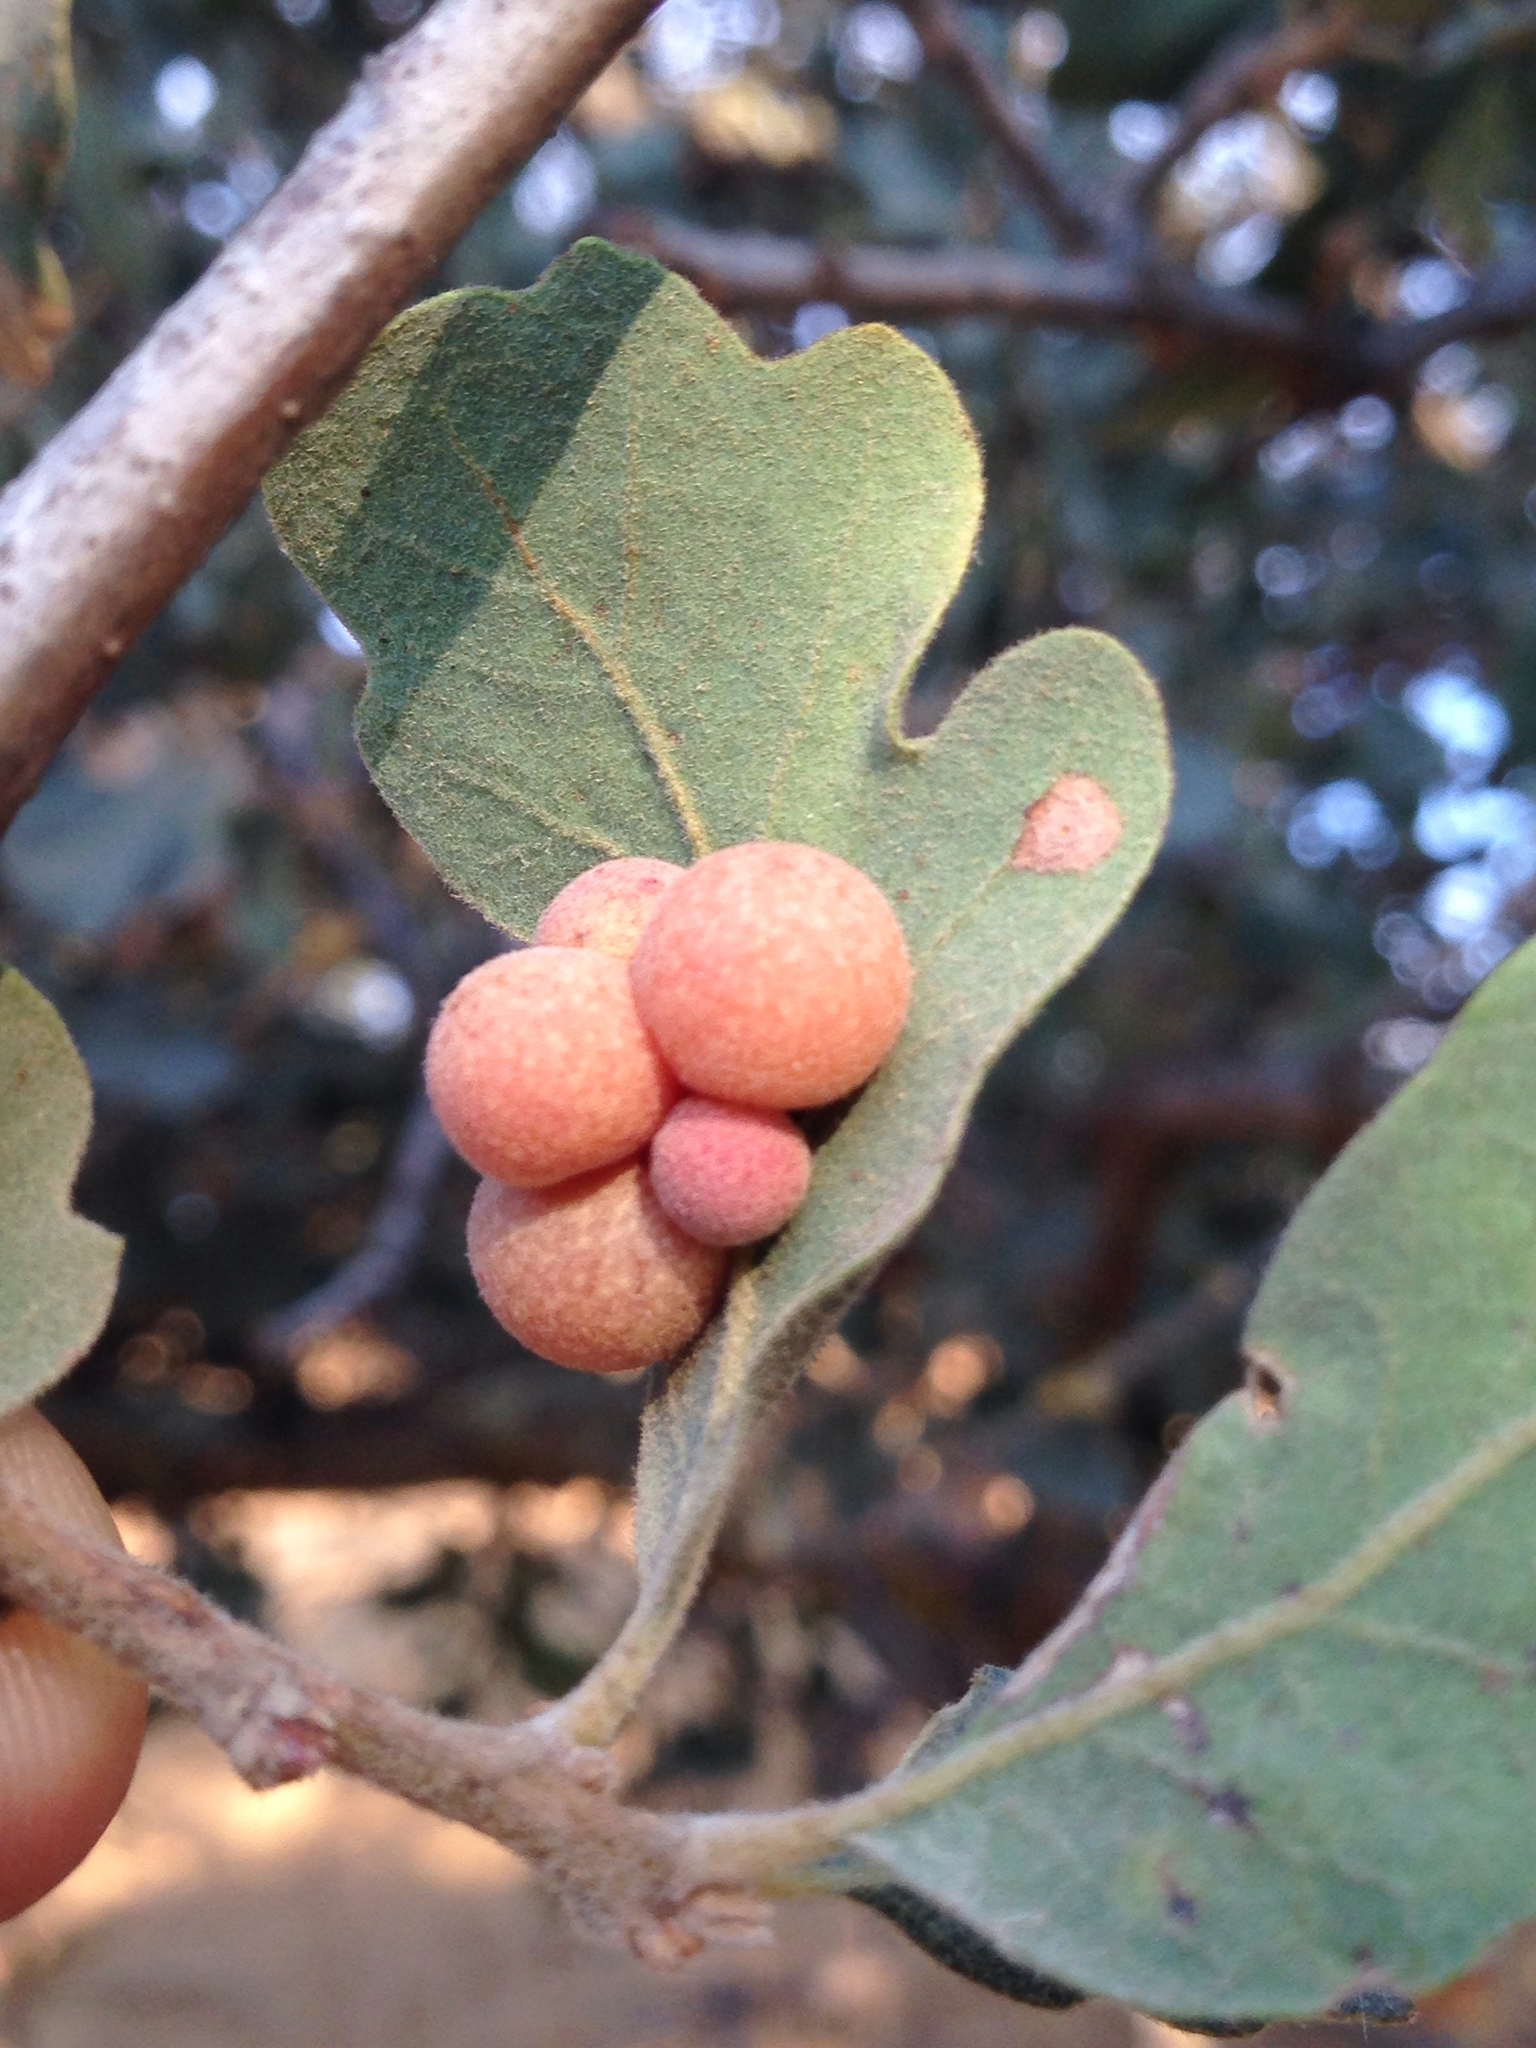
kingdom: Animalia
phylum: Arthropoda
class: Insecta
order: Hymenoptera
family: Cynipidae
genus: Andricus
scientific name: Andricus
